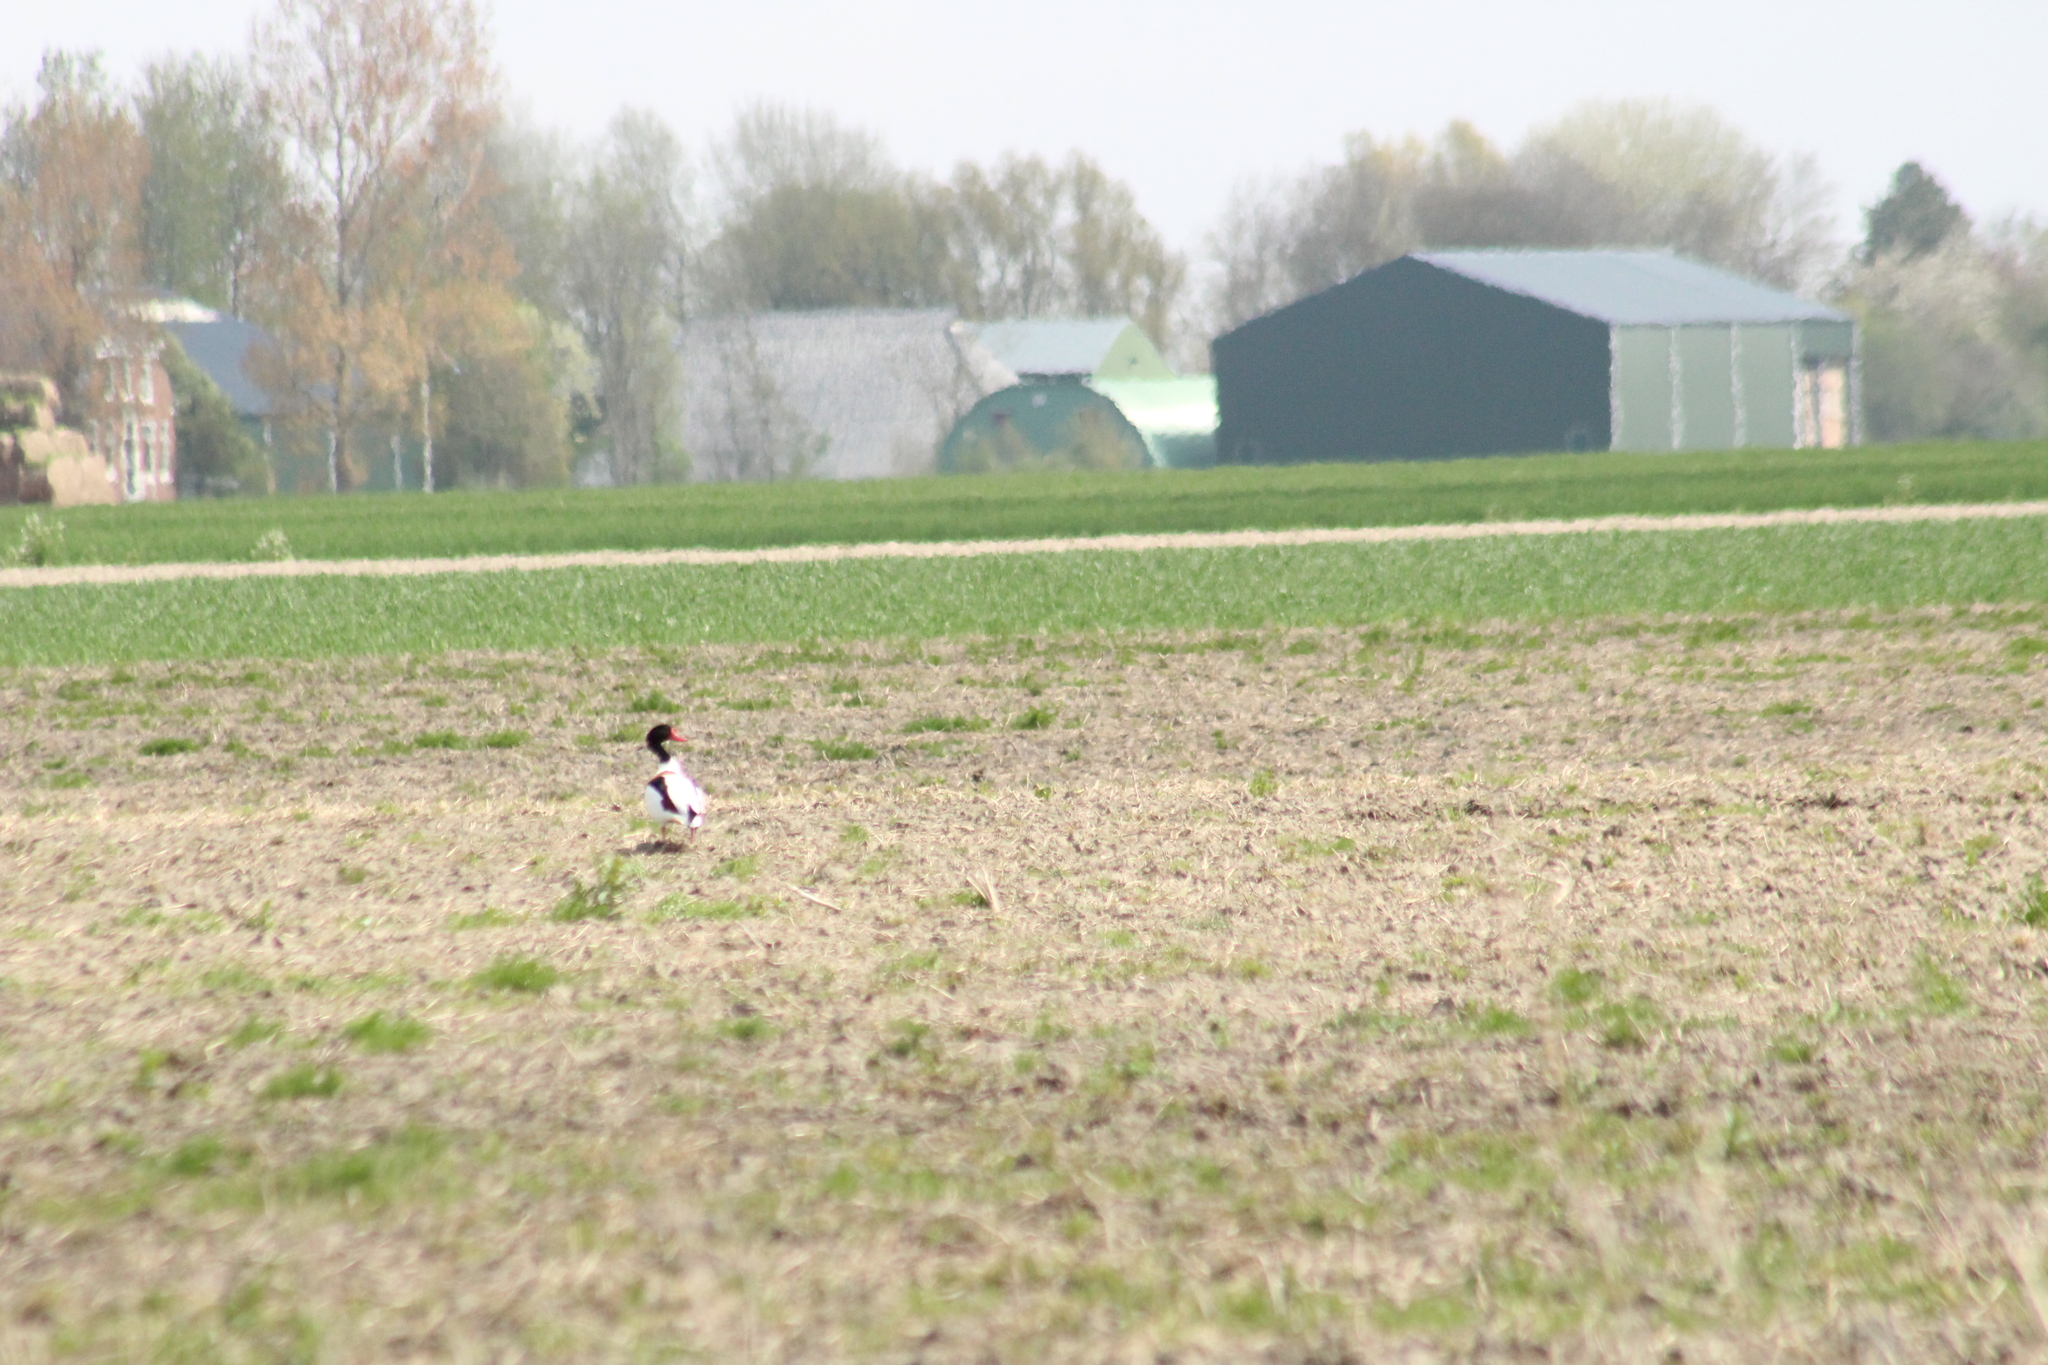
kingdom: Animalia
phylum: Chordata
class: Aves
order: Anseriformes
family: Anatidae
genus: Tadorna
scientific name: Tadorna tadorna
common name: Common shelduck
